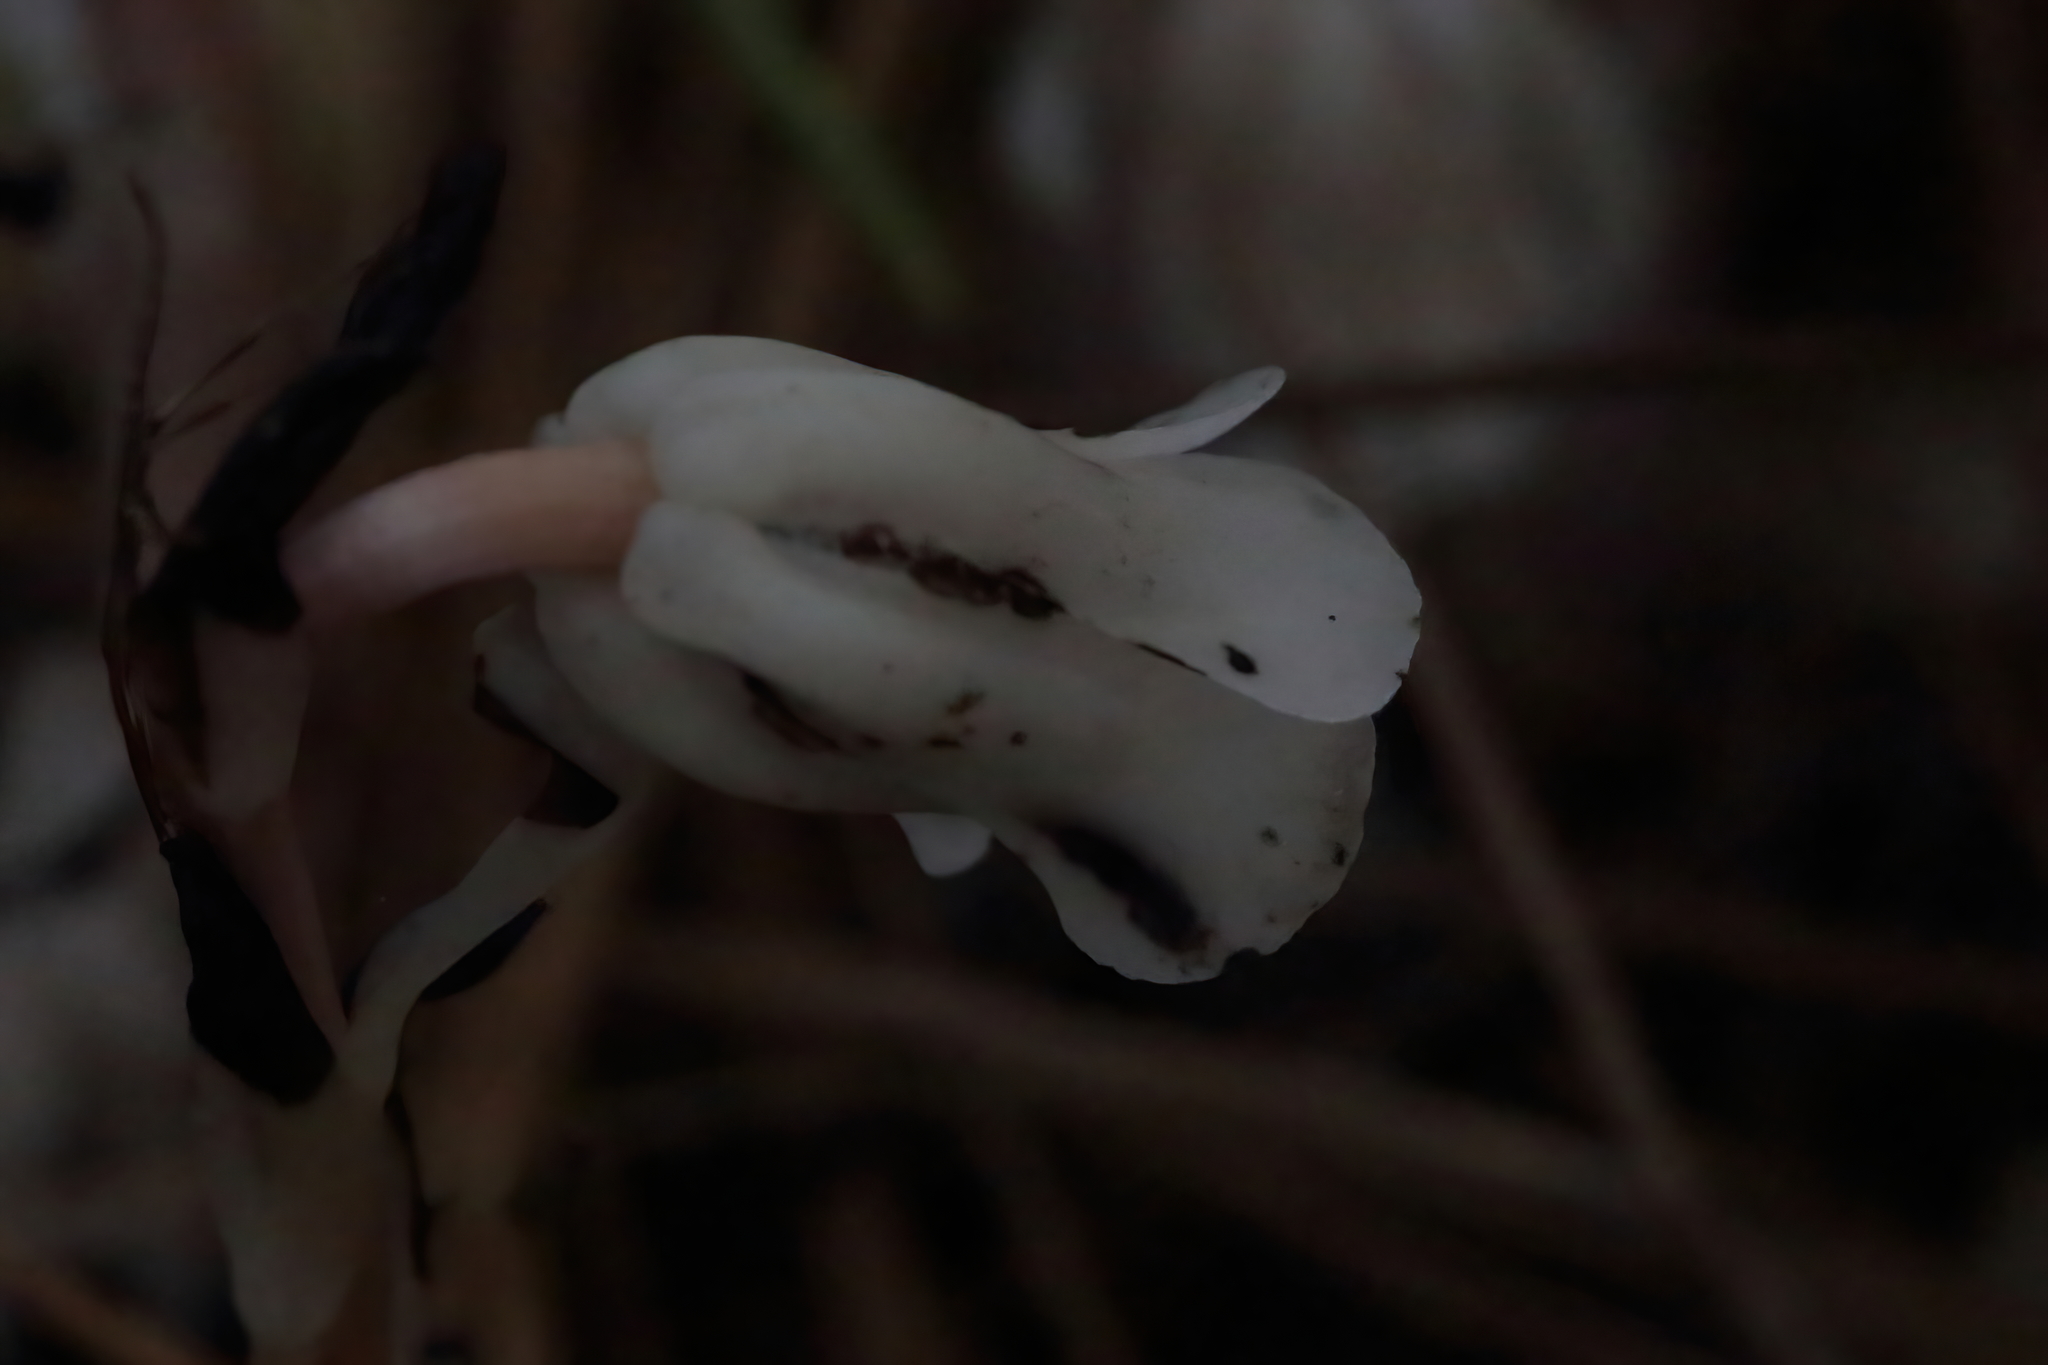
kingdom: Plantae
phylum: Tracheophyta
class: Magnoliopsida
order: Ericales
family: Ericaceae
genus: Monotropa
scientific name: Monotropa uniflora
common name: Convulsion root
